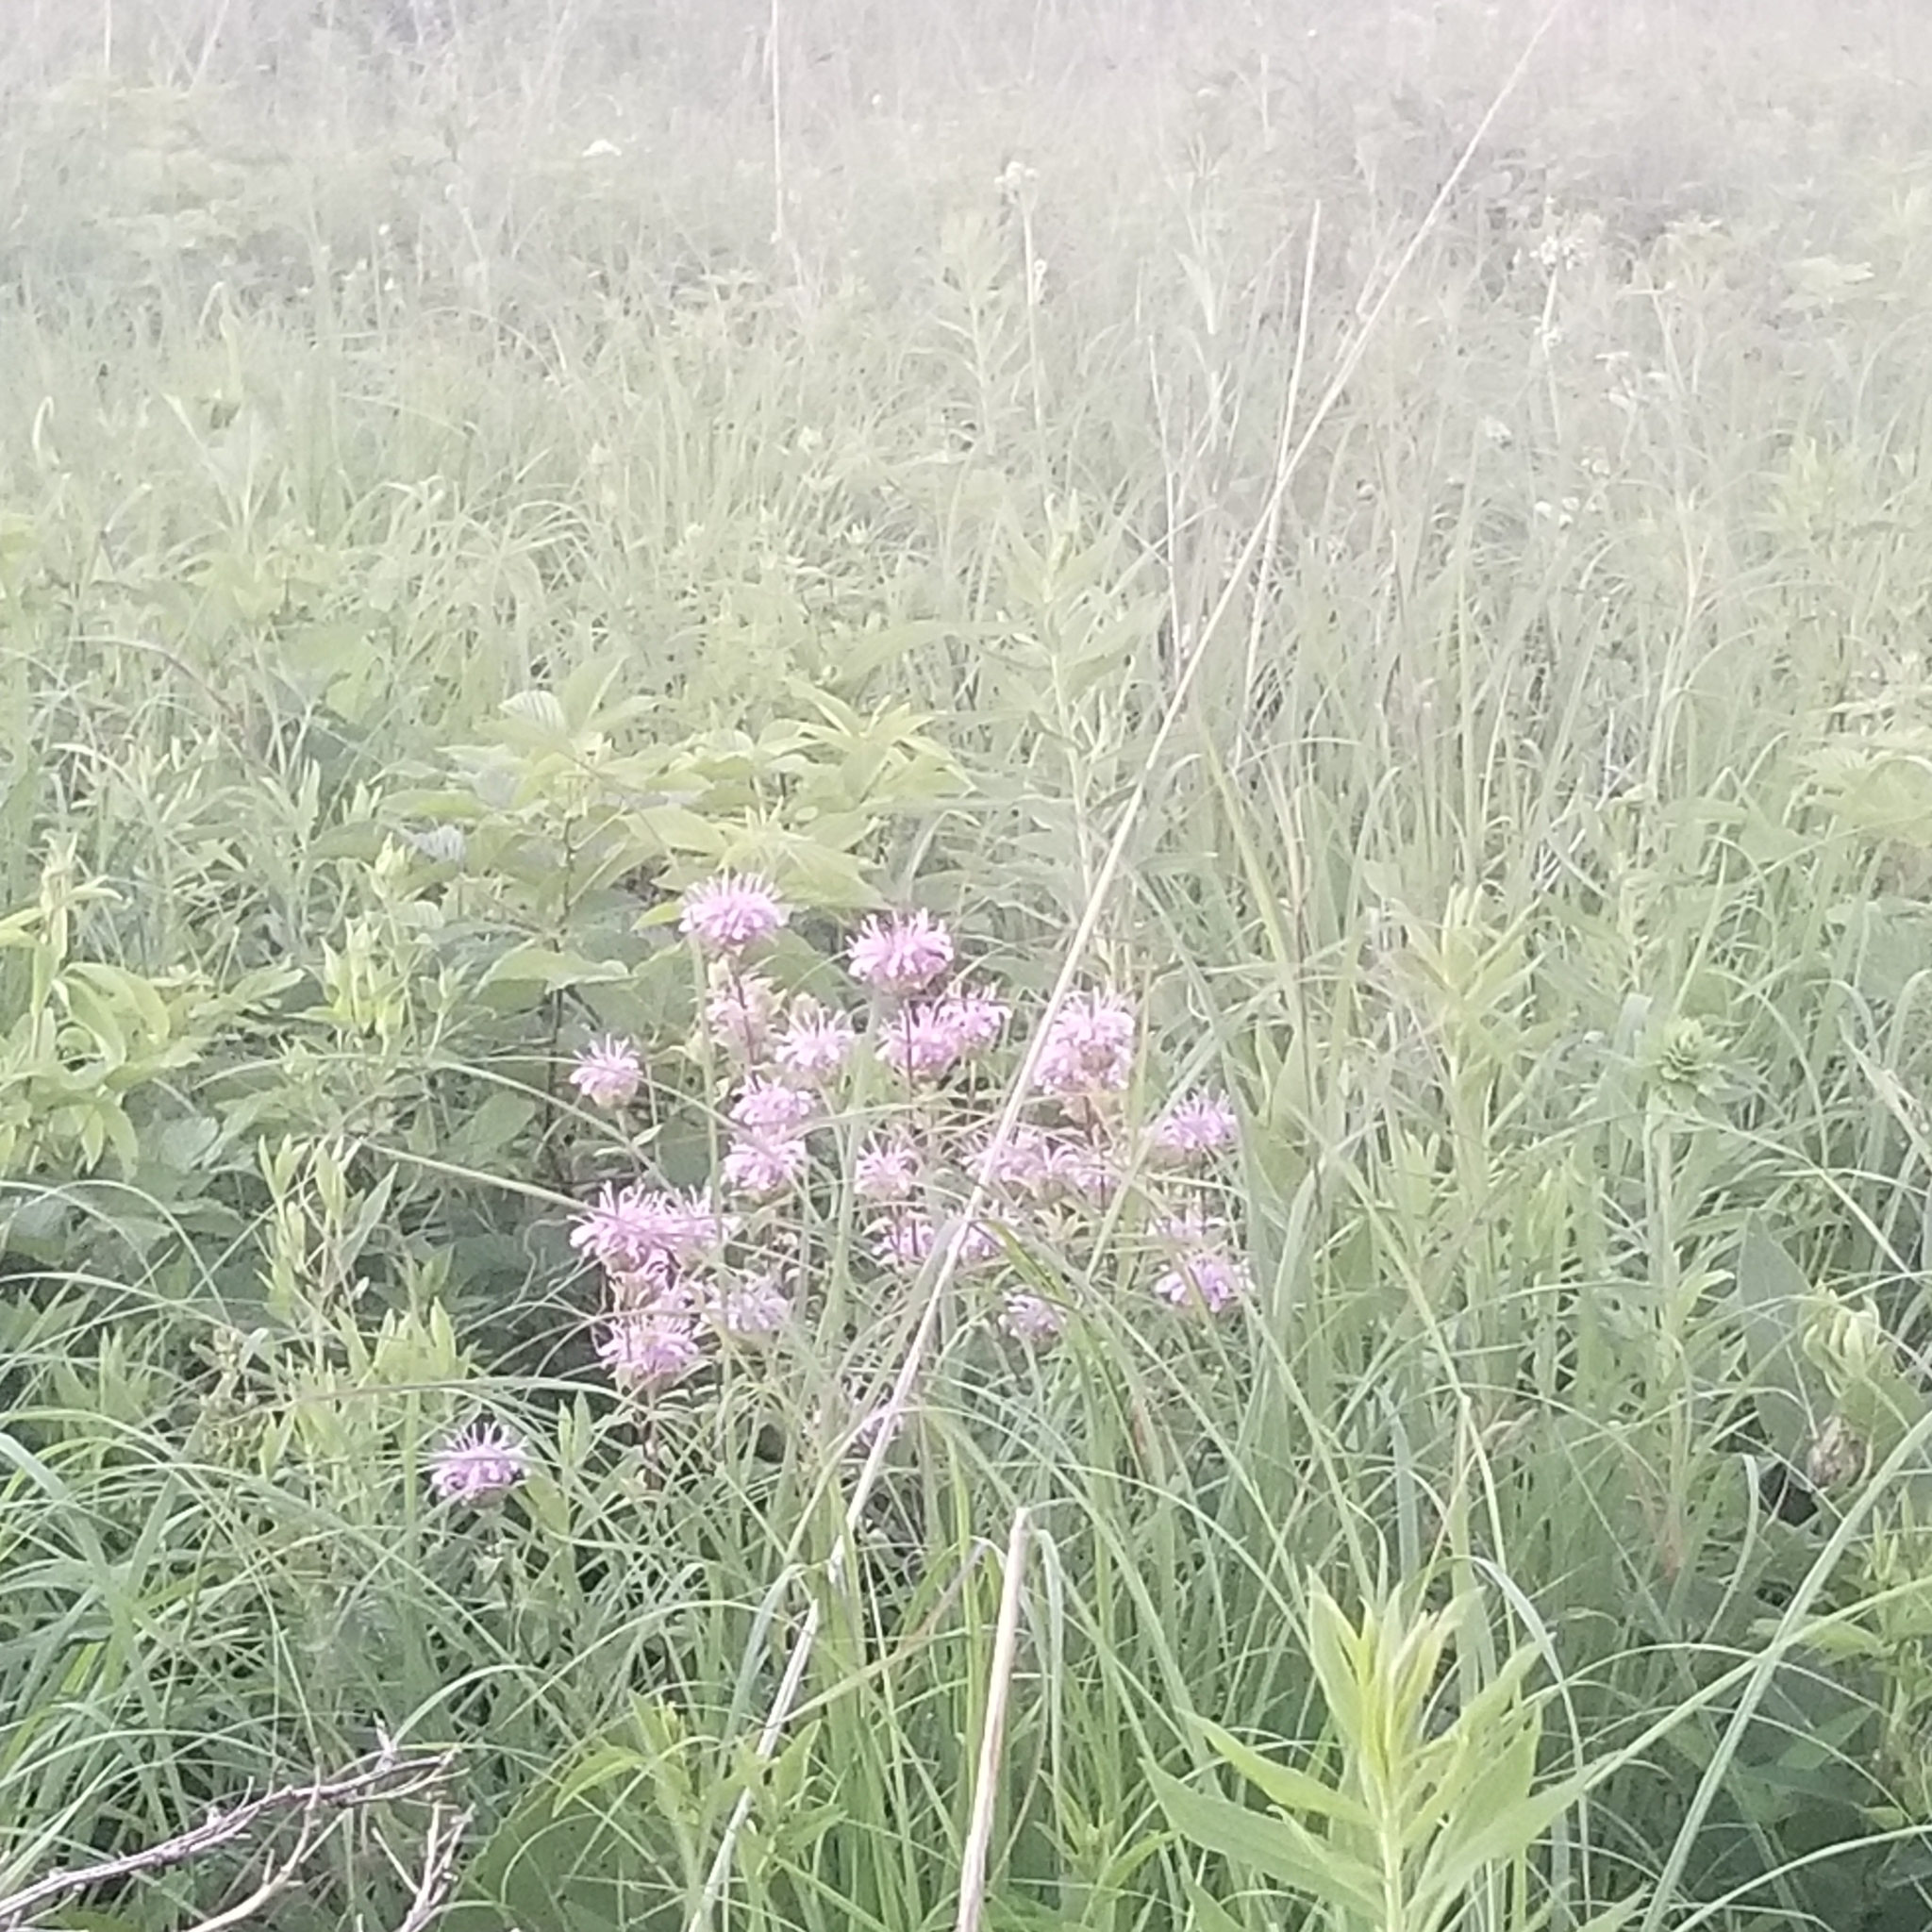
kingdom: Plantae
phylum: Tracheophyta
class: Magnoliopsida
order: Lamiales
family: Lamiaceae
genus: Monarda
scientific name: Monarda fistulosa
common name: Purple beebalm
